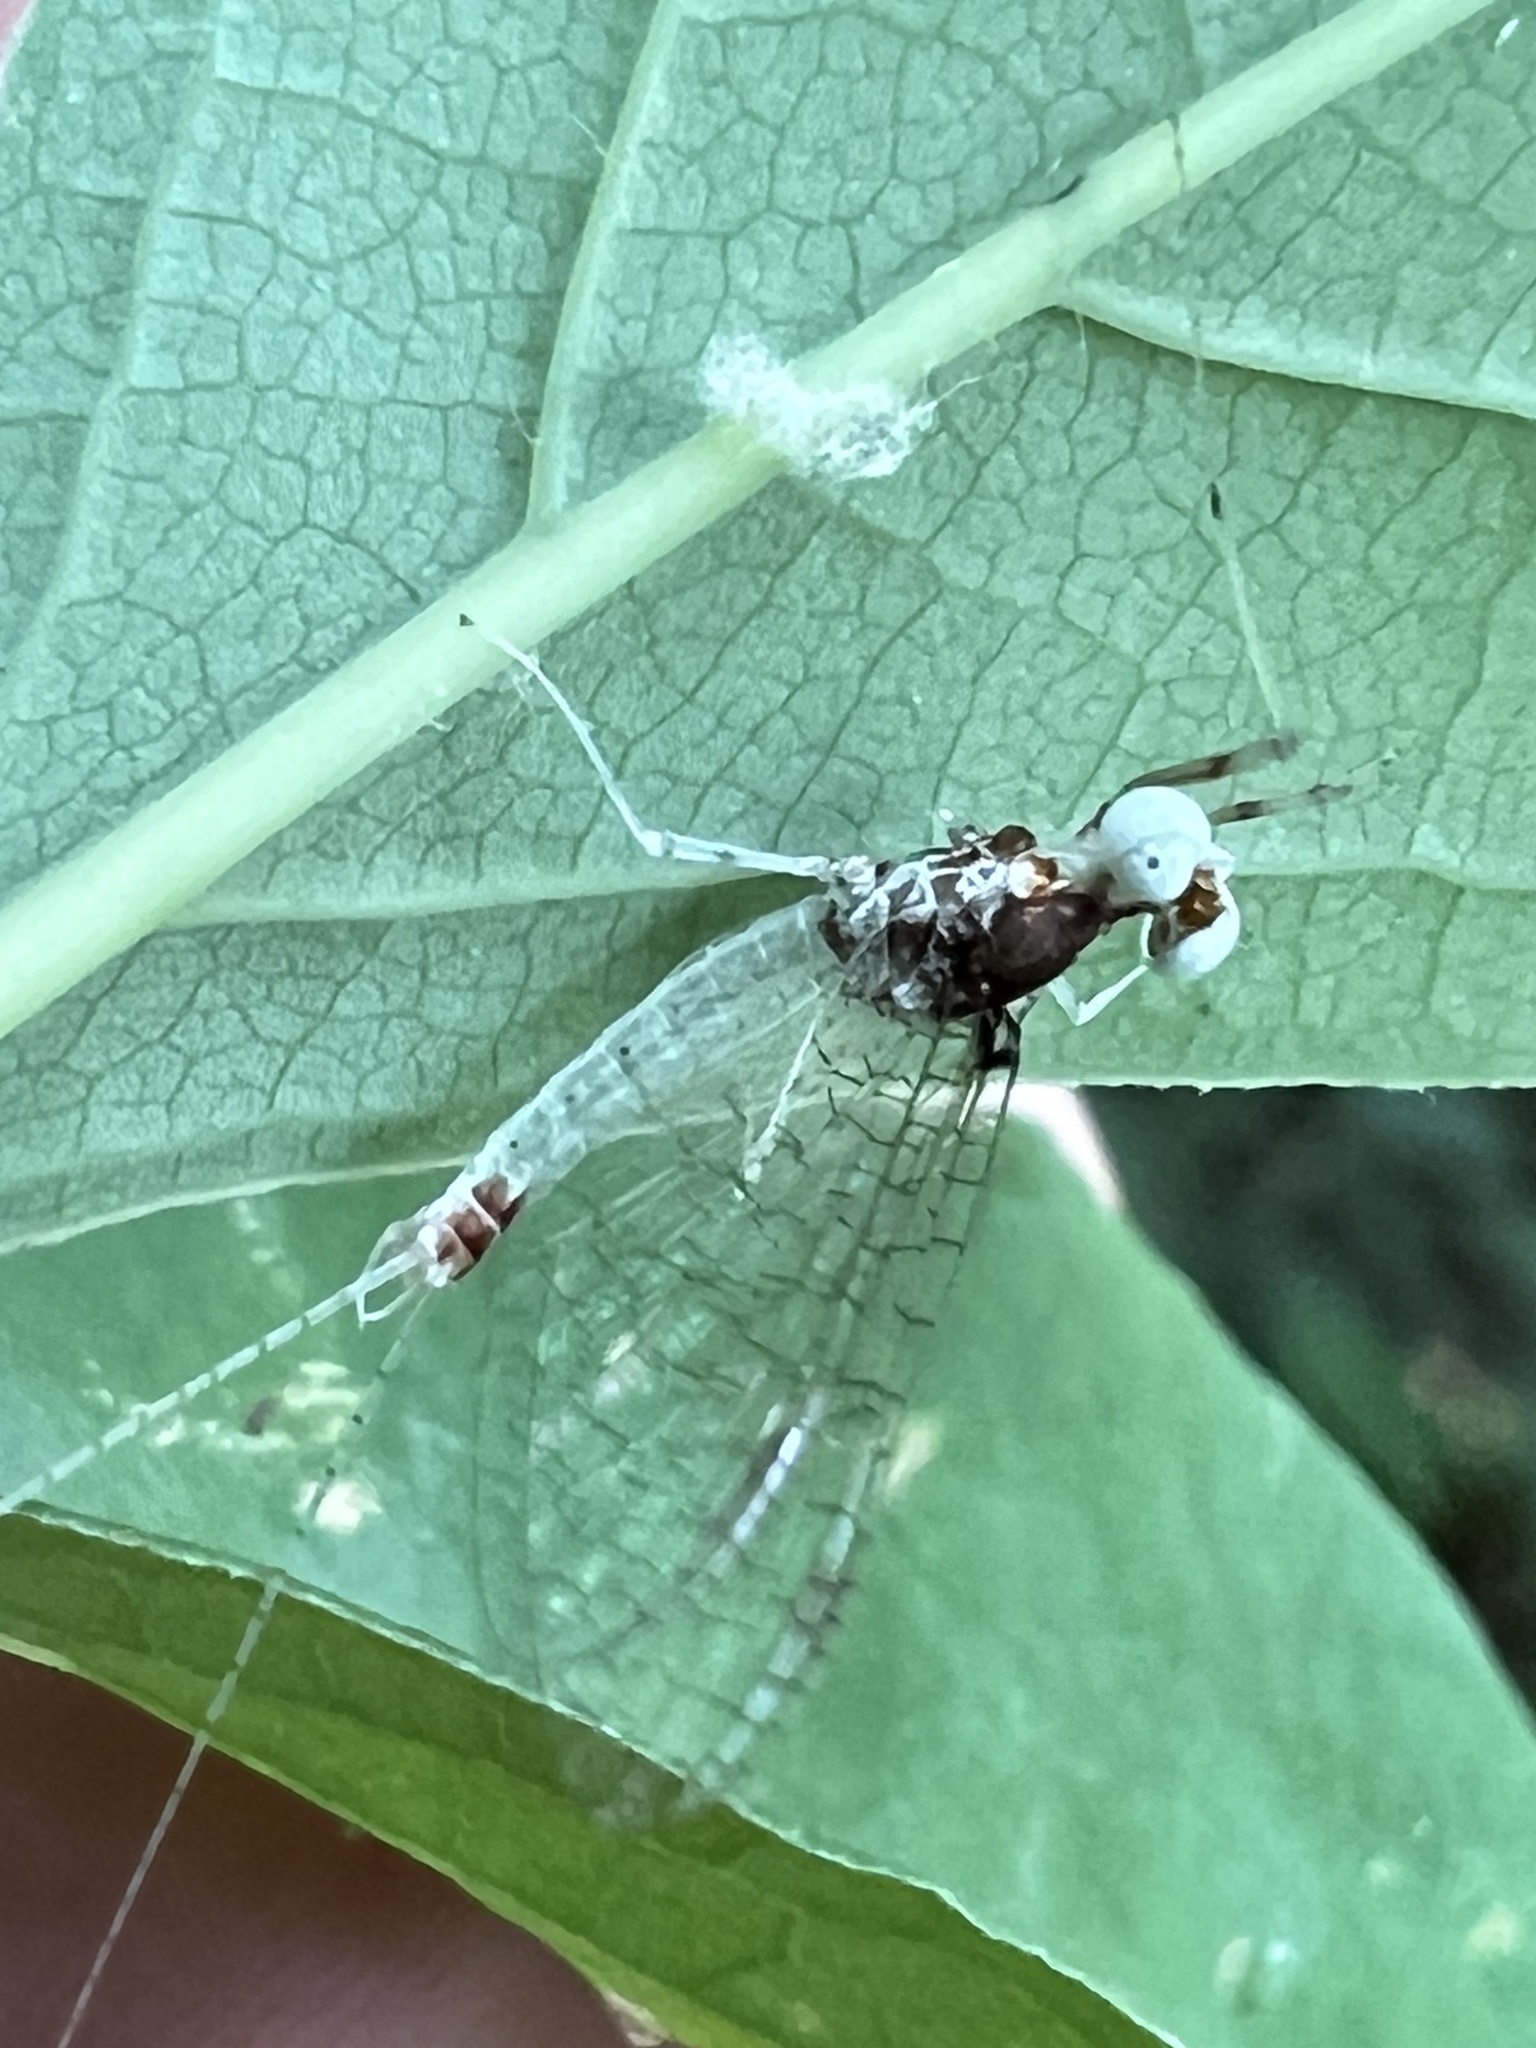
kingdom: Animalia
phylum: Arthropoda
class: Insecta
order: Ephemeroptera
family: Heptageniidae
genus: Maccaffertium
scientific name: Maccaffertium modestum
